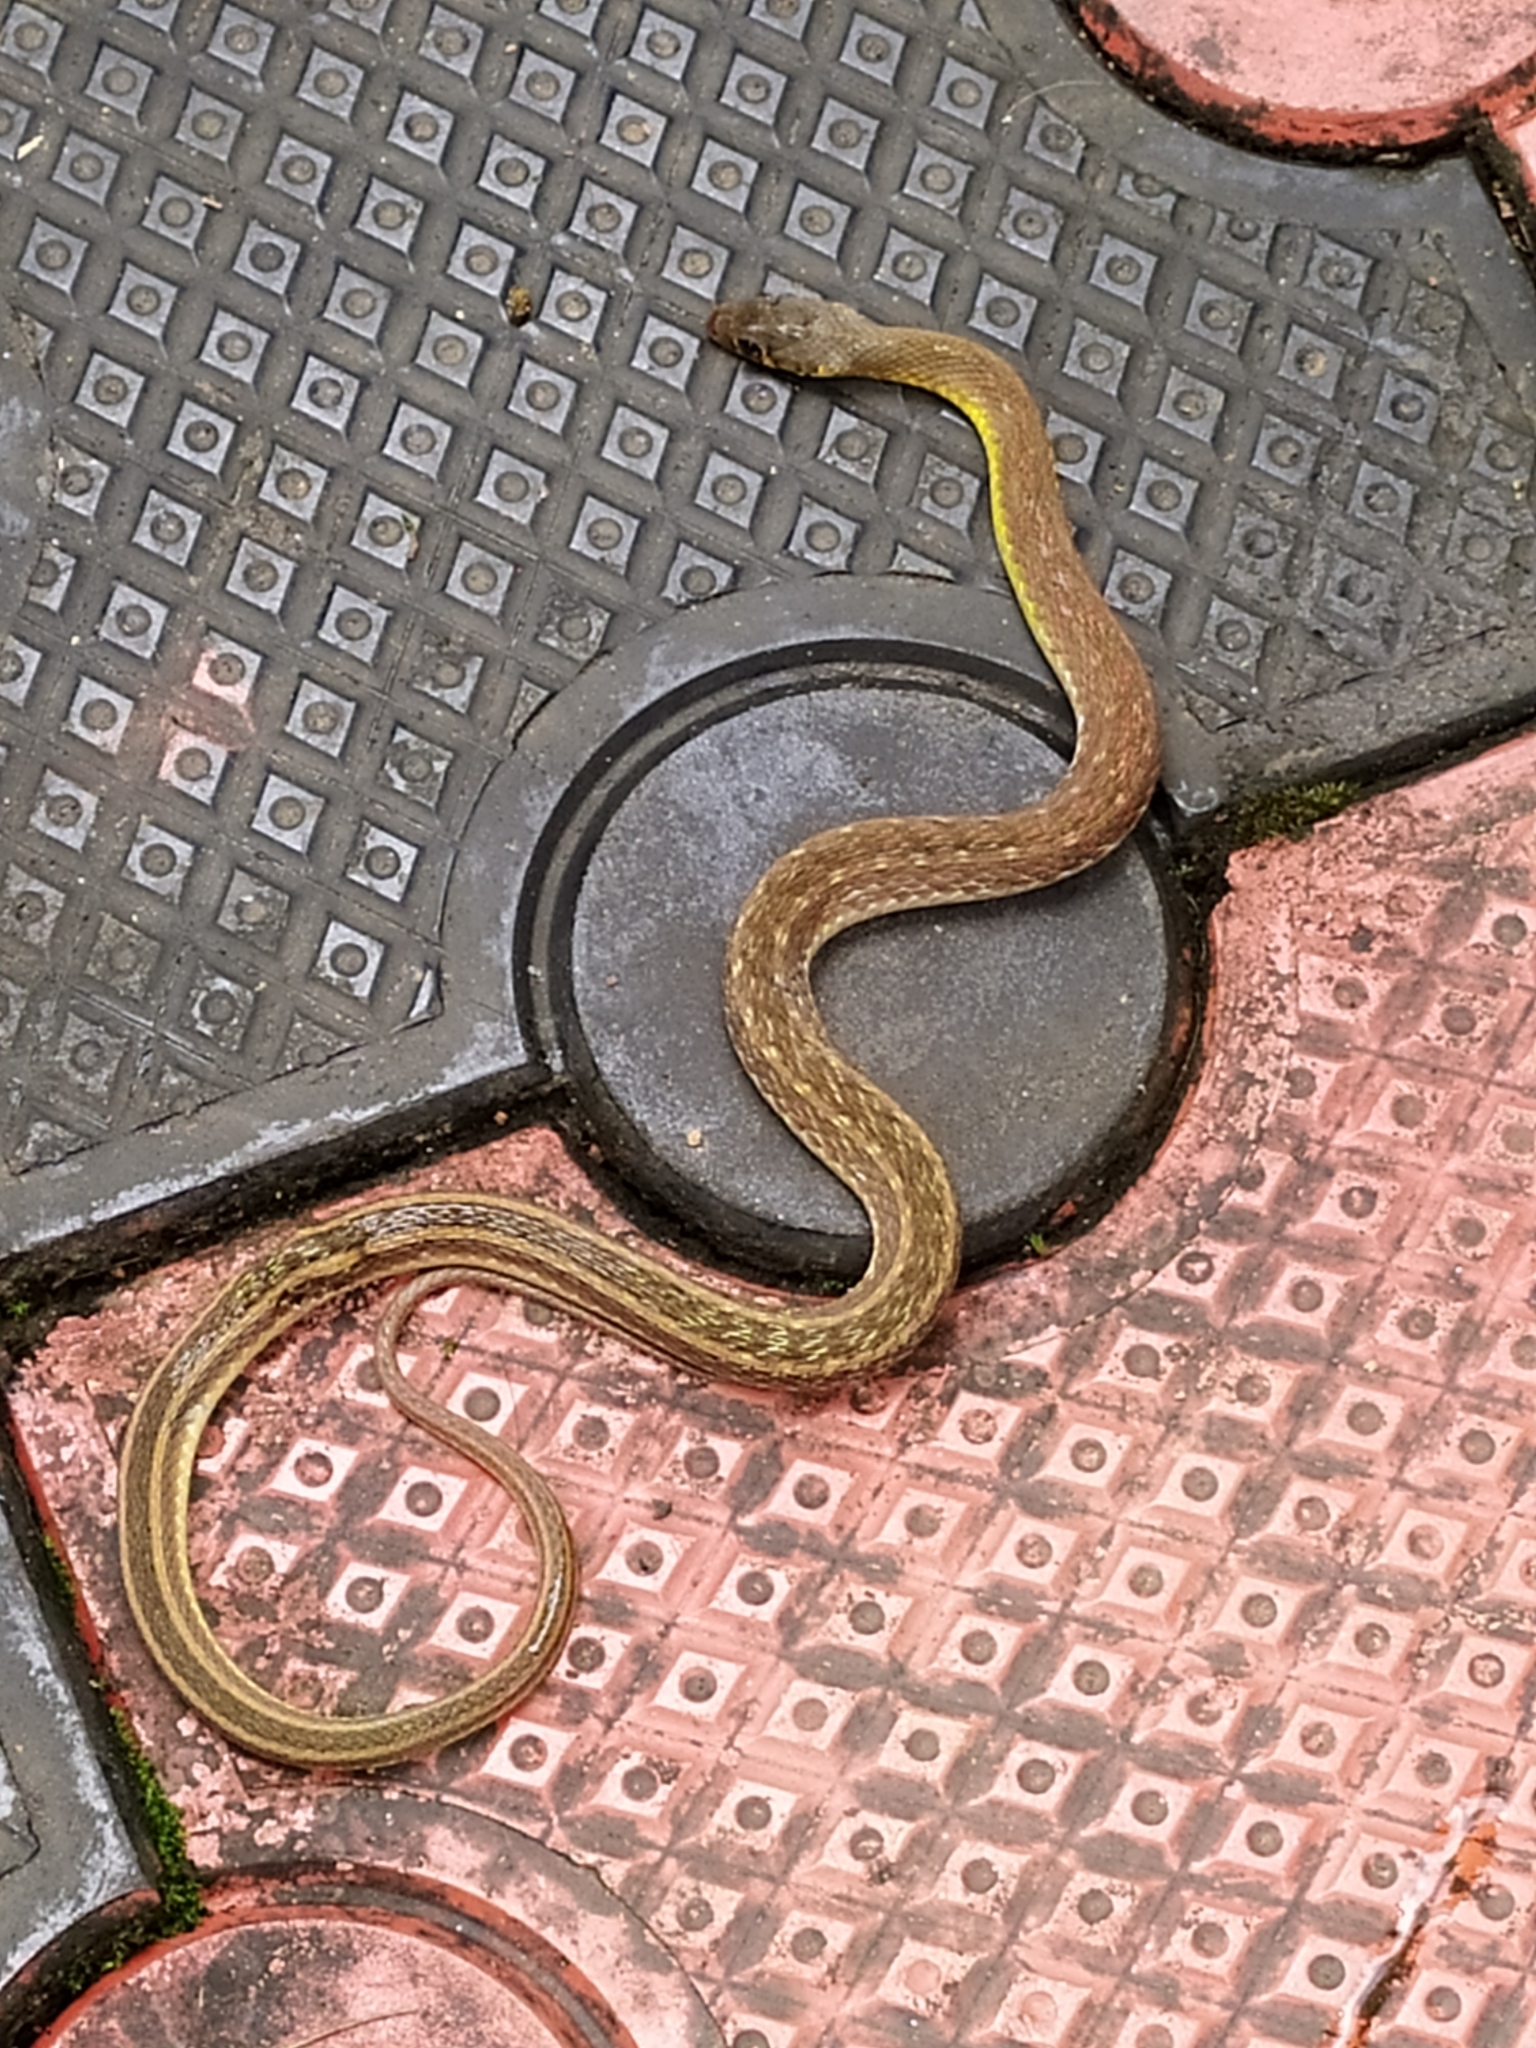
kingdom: Animalia
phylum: Chordata
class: Squamata
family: Colubridae
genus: Amphiesma
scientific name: Amphiesma stolatum
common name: Buff striped keelback
